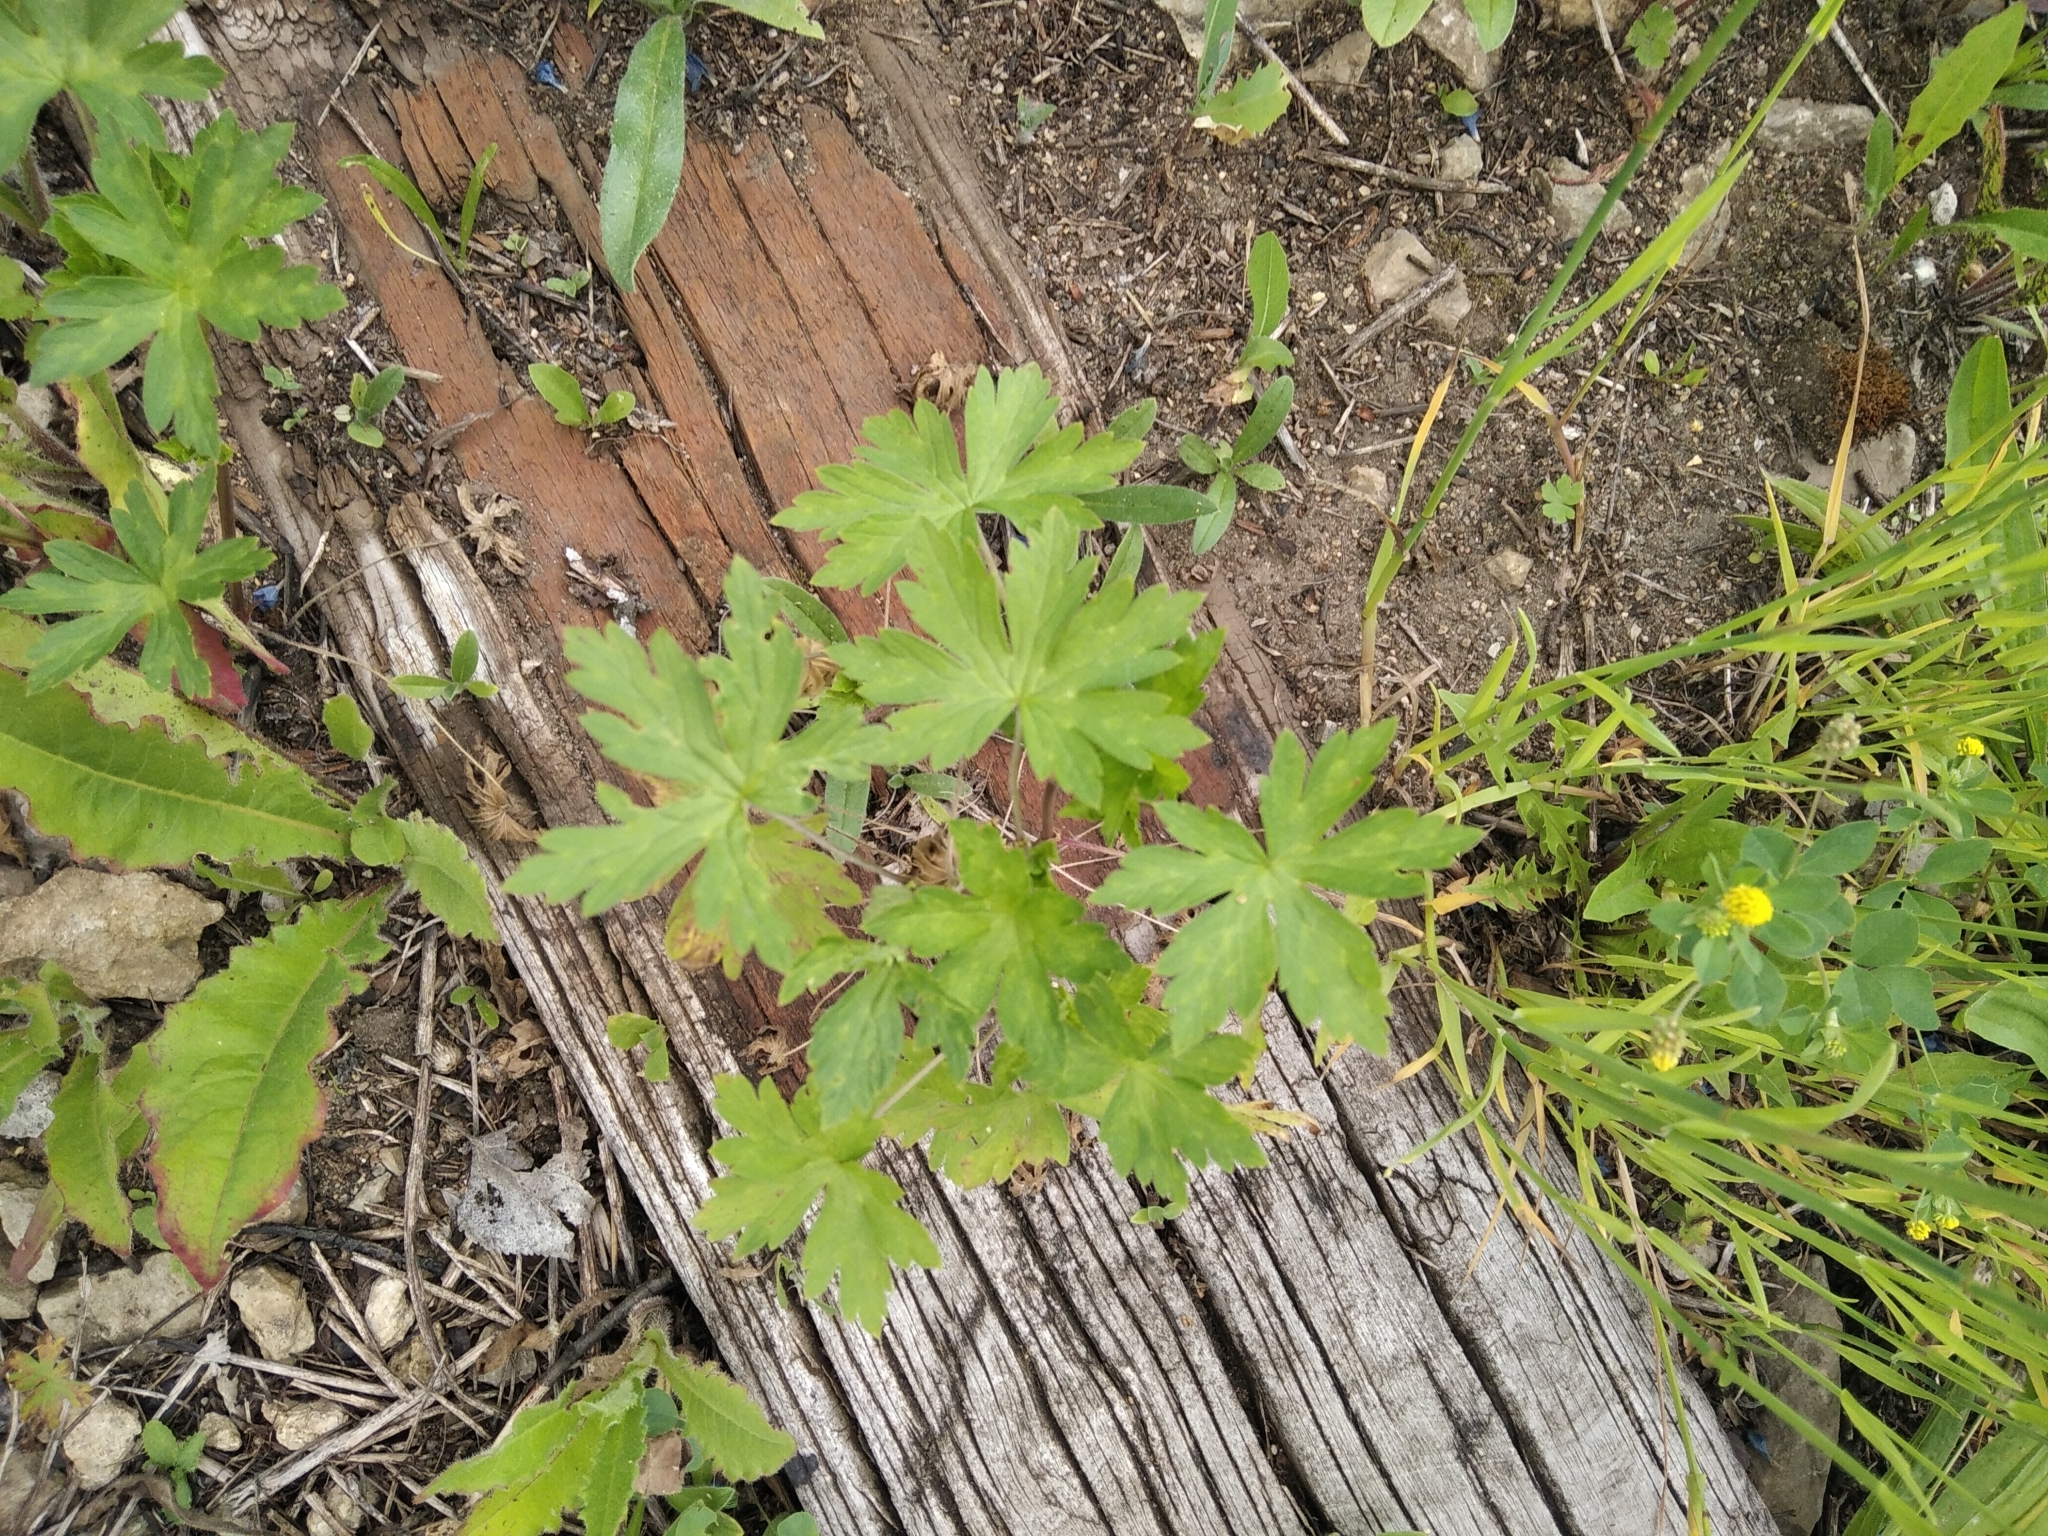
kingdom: Plantae
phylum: Tracheophyta
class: Magnoliopsida
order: Geraniales
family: Geraniaceae
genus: Geranium
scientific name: Geranium sibiricum
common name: Siberian crane's-bill
